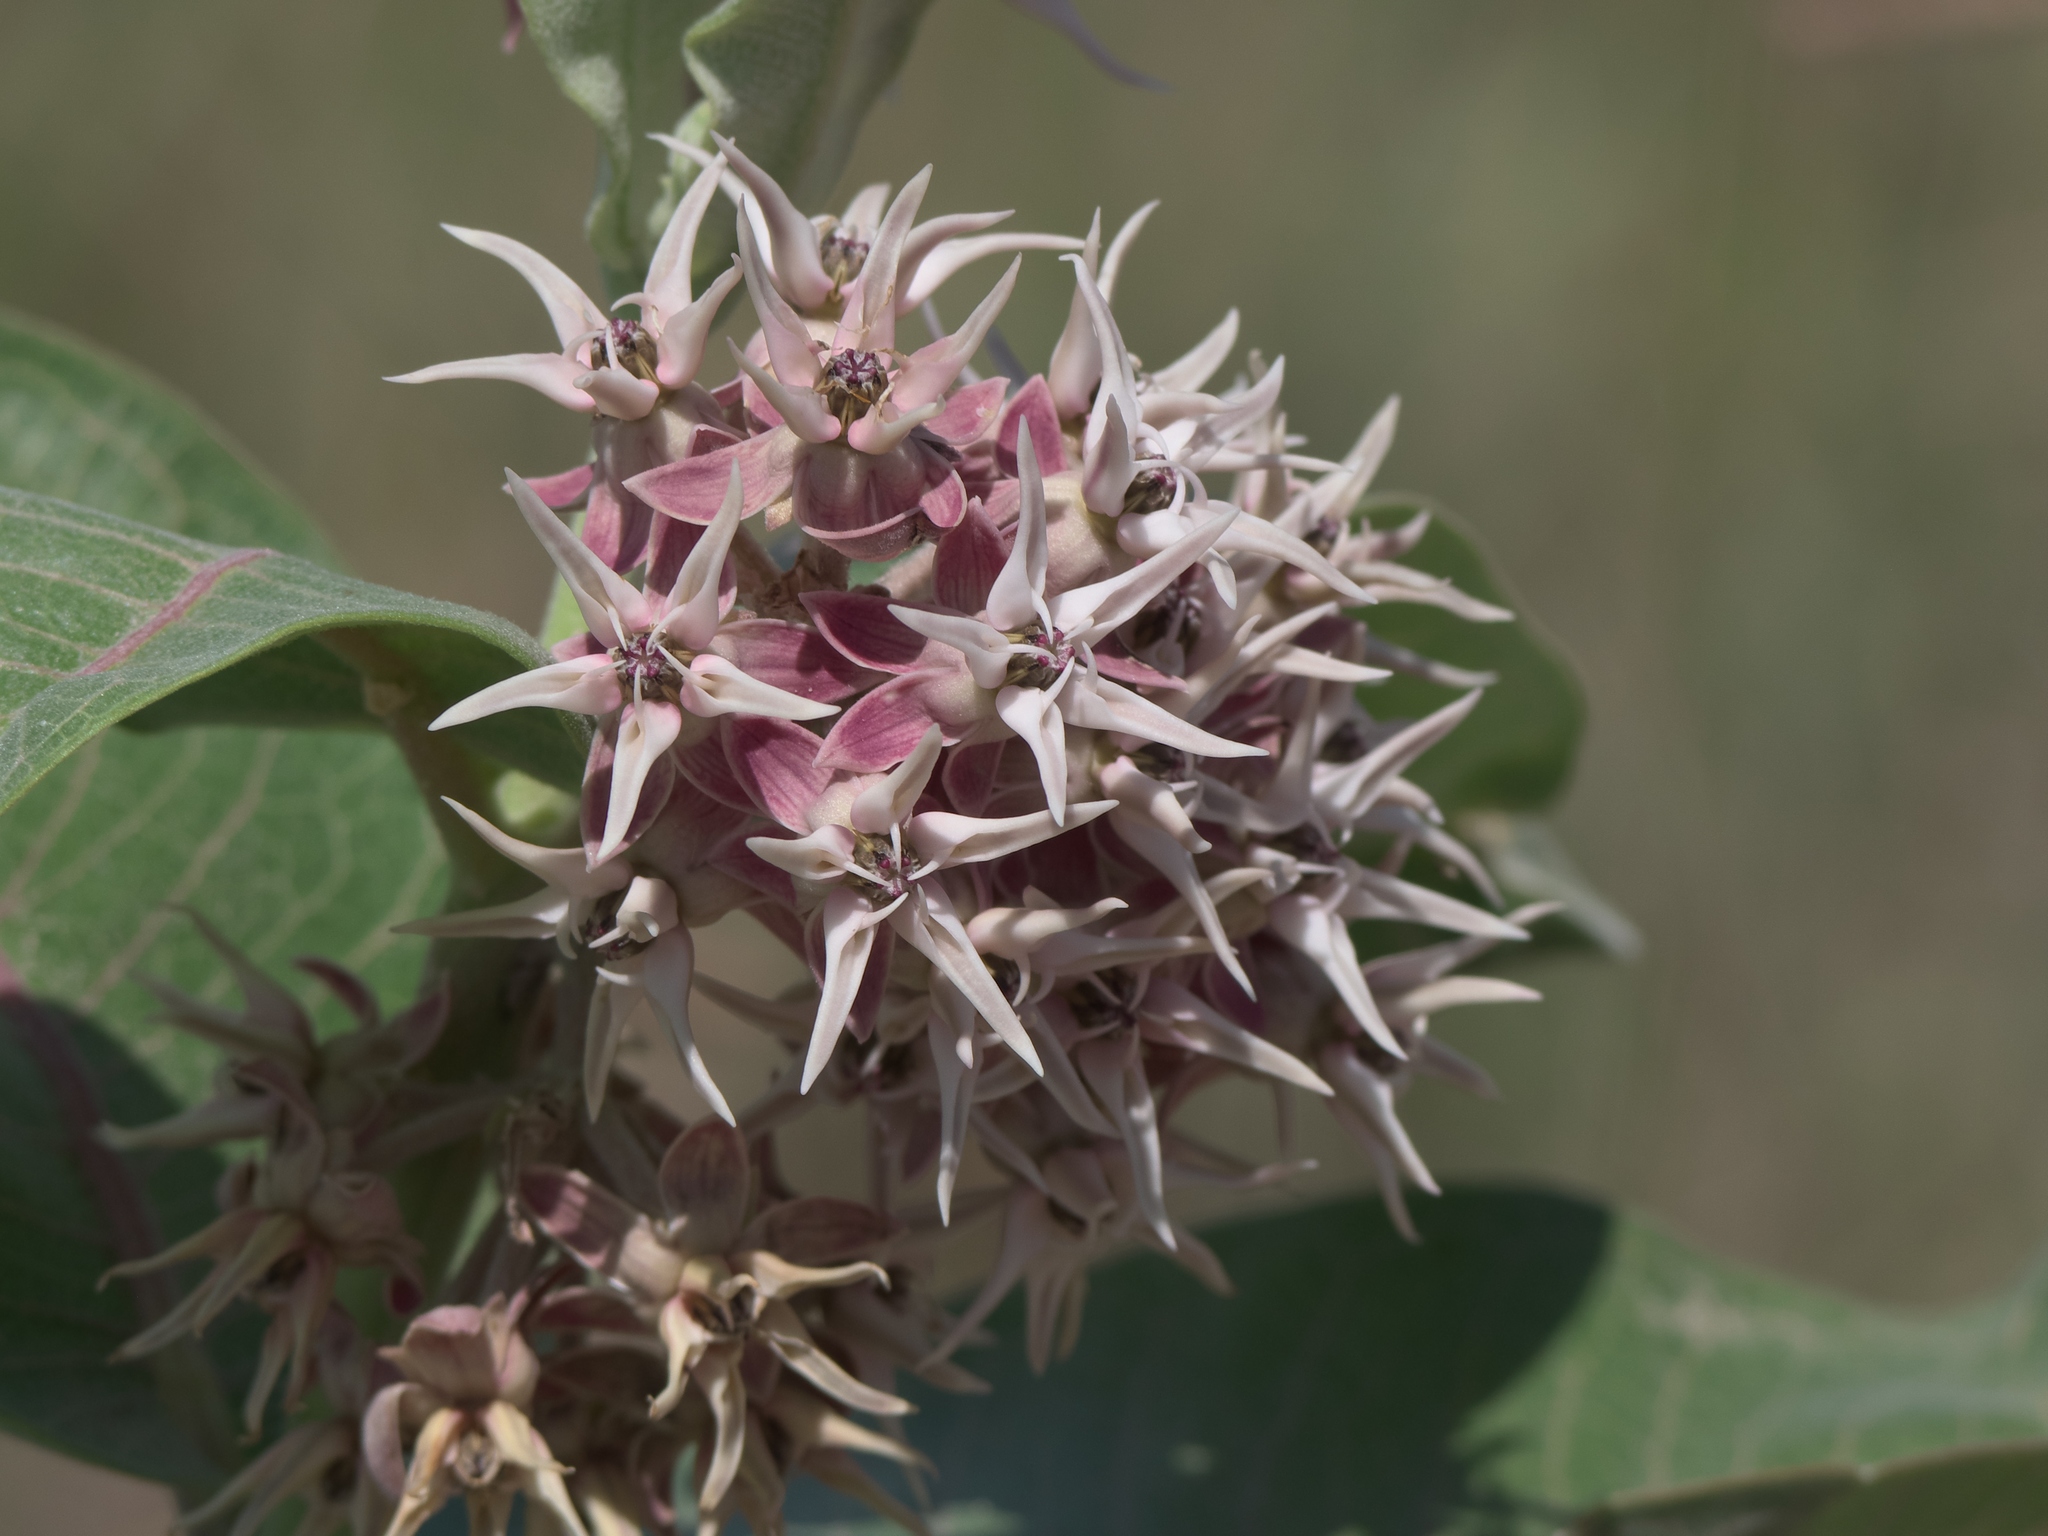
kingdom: Plantae
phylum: Tracheophyta
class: Magnoliopsida
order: Gentianales
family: Apocynaceae
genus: Asclepias
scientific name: Asclepias speciosa
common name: Showy milkweed
